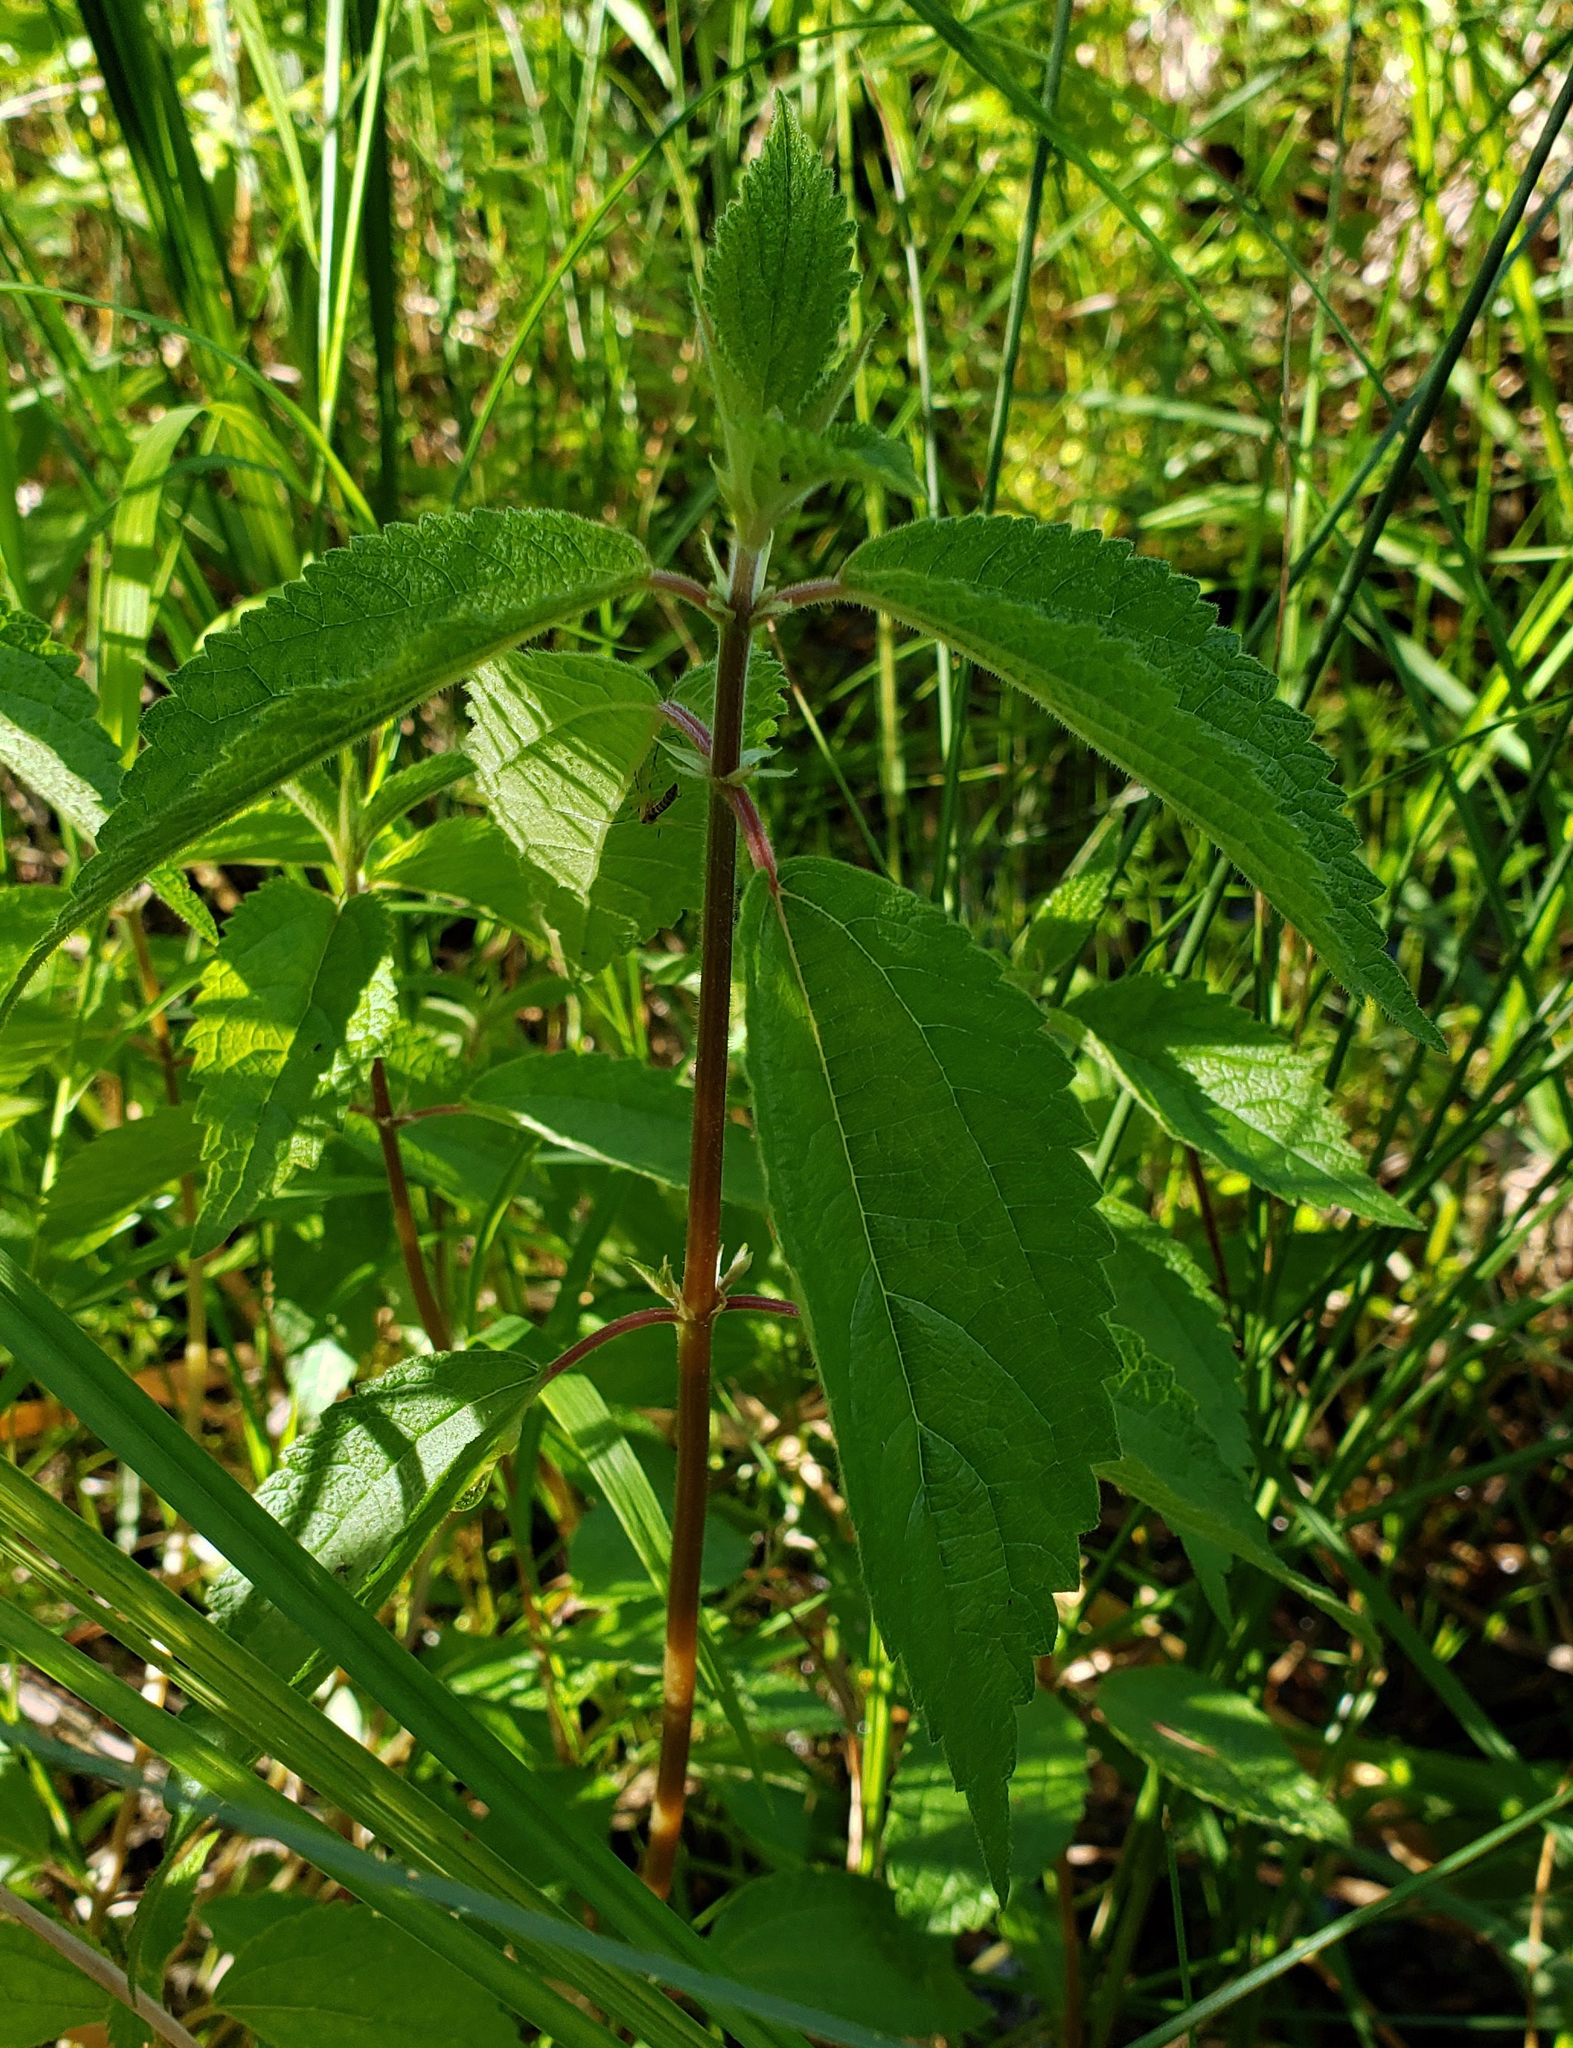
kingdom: Plantae
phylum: Tracheophyta
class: Magnoliopsida
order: Rosales
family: Urticaceae
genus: Boehmeria
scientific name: Boehmeria cylindrica
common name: Bog-hemp
